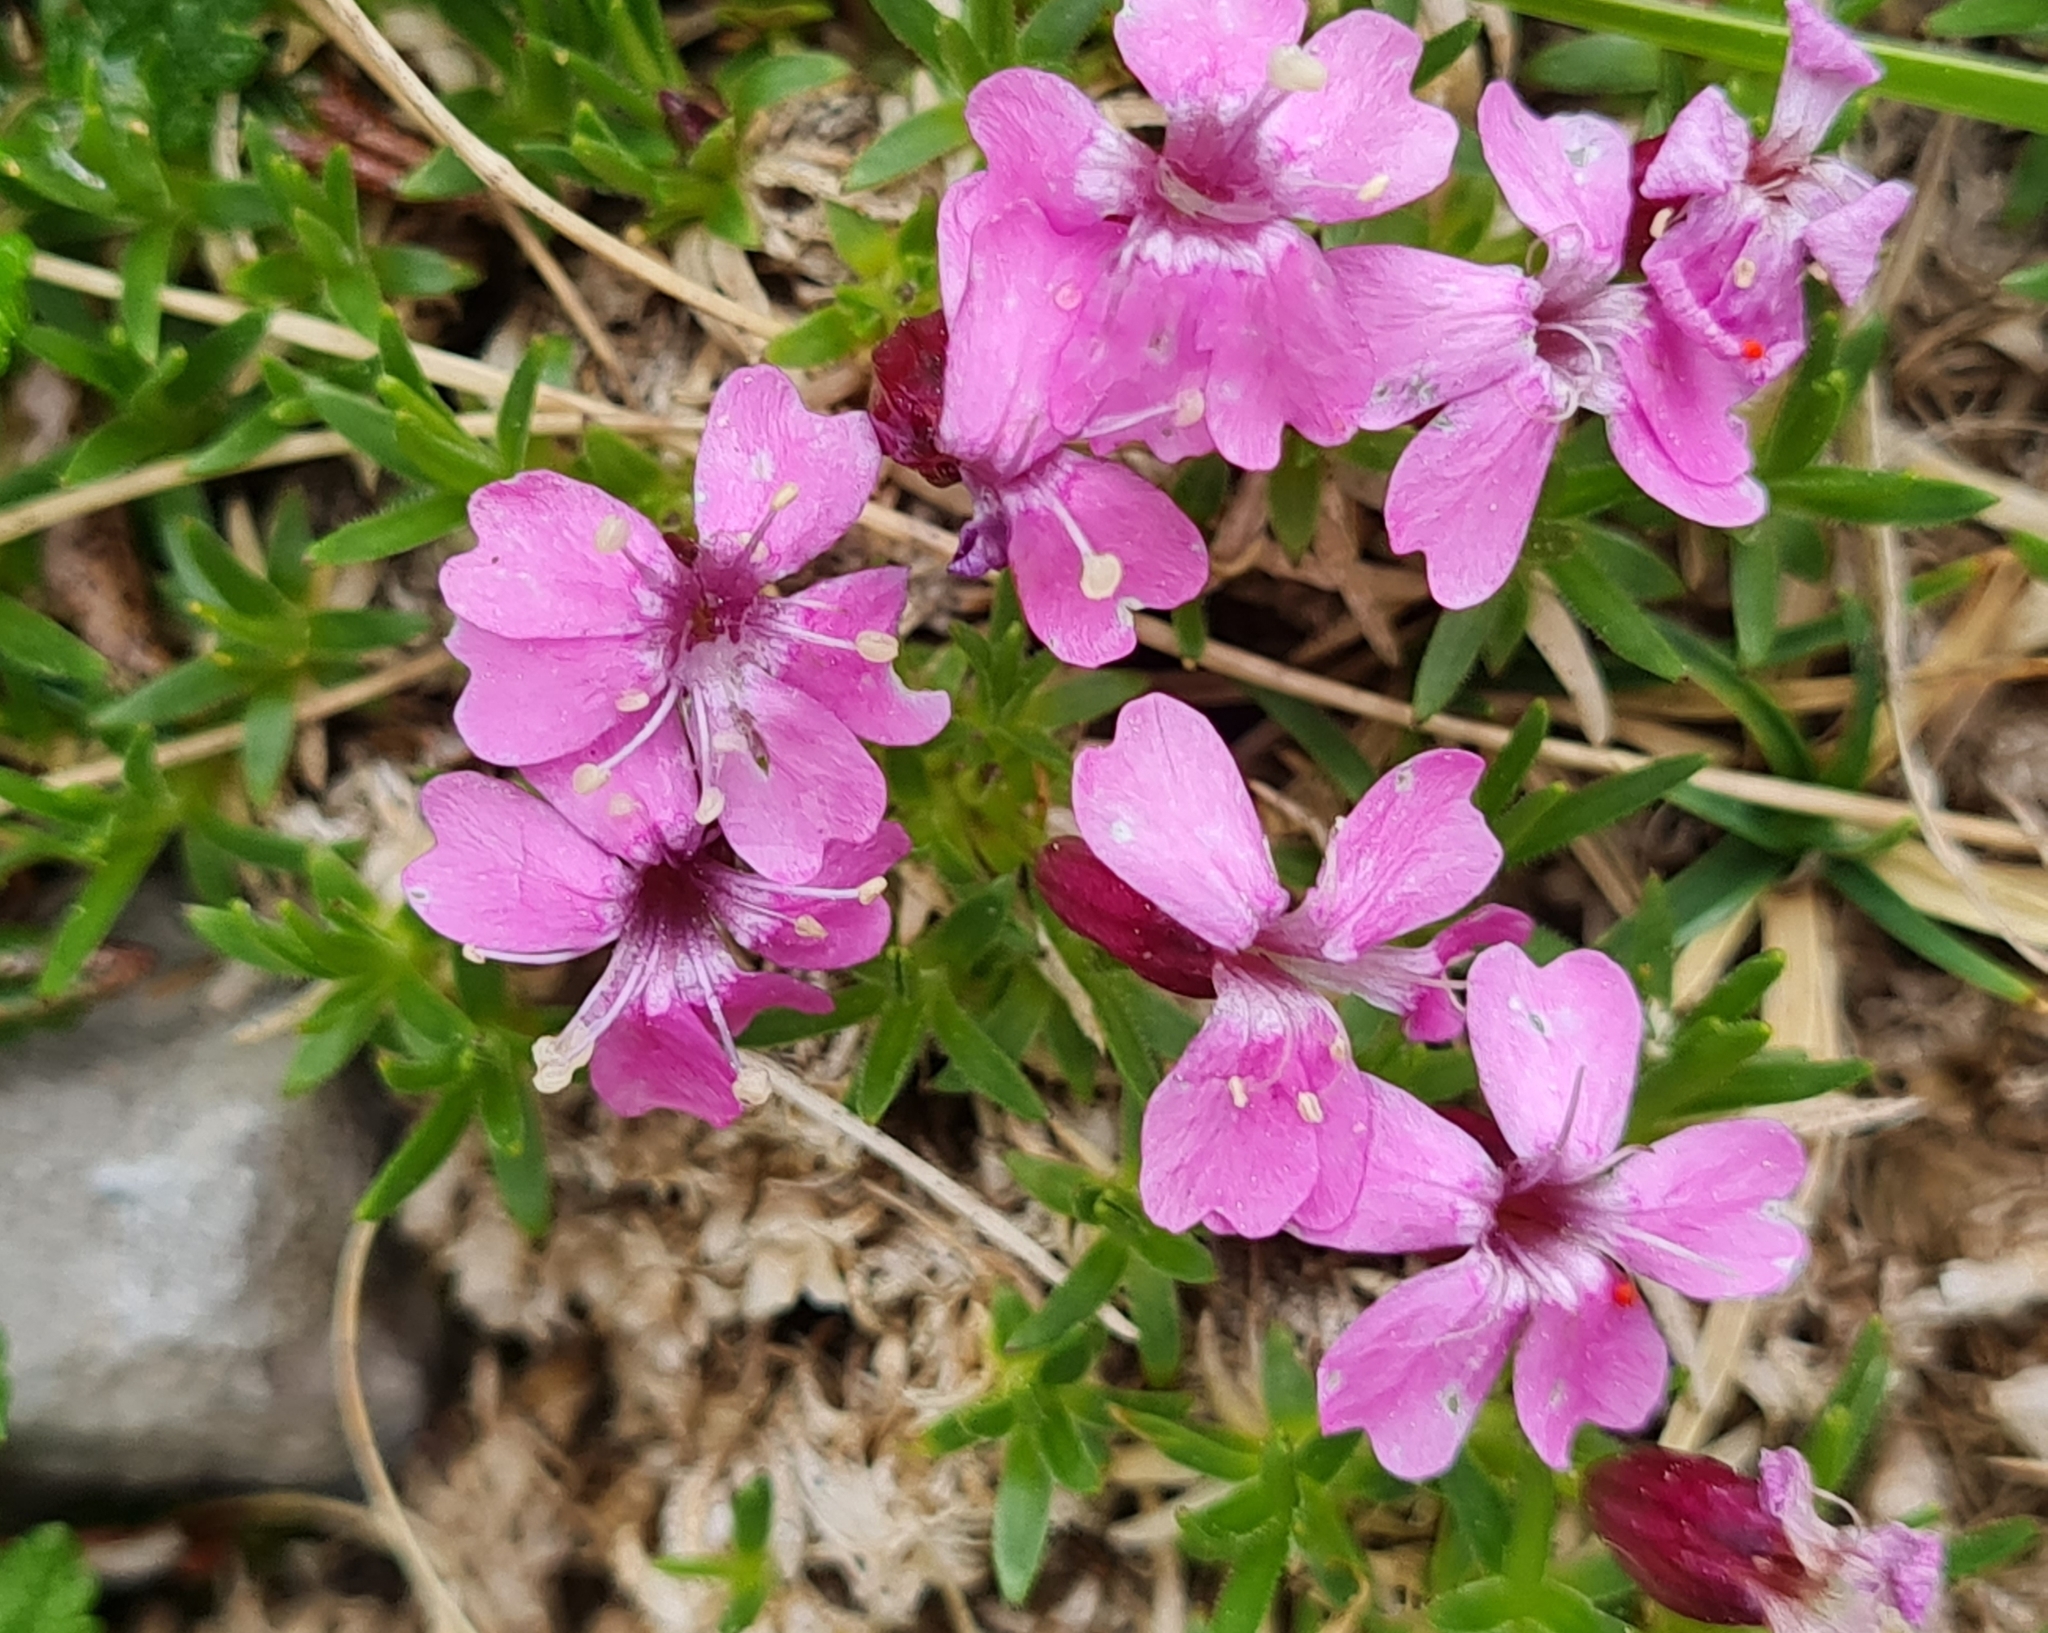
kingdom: Plantae
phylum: Tracheophyta
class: Magnoliopsida
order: Caryophyllales
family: Caryophyllaceae
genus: Silene
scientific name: Silene acaulis
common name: Moss campion
